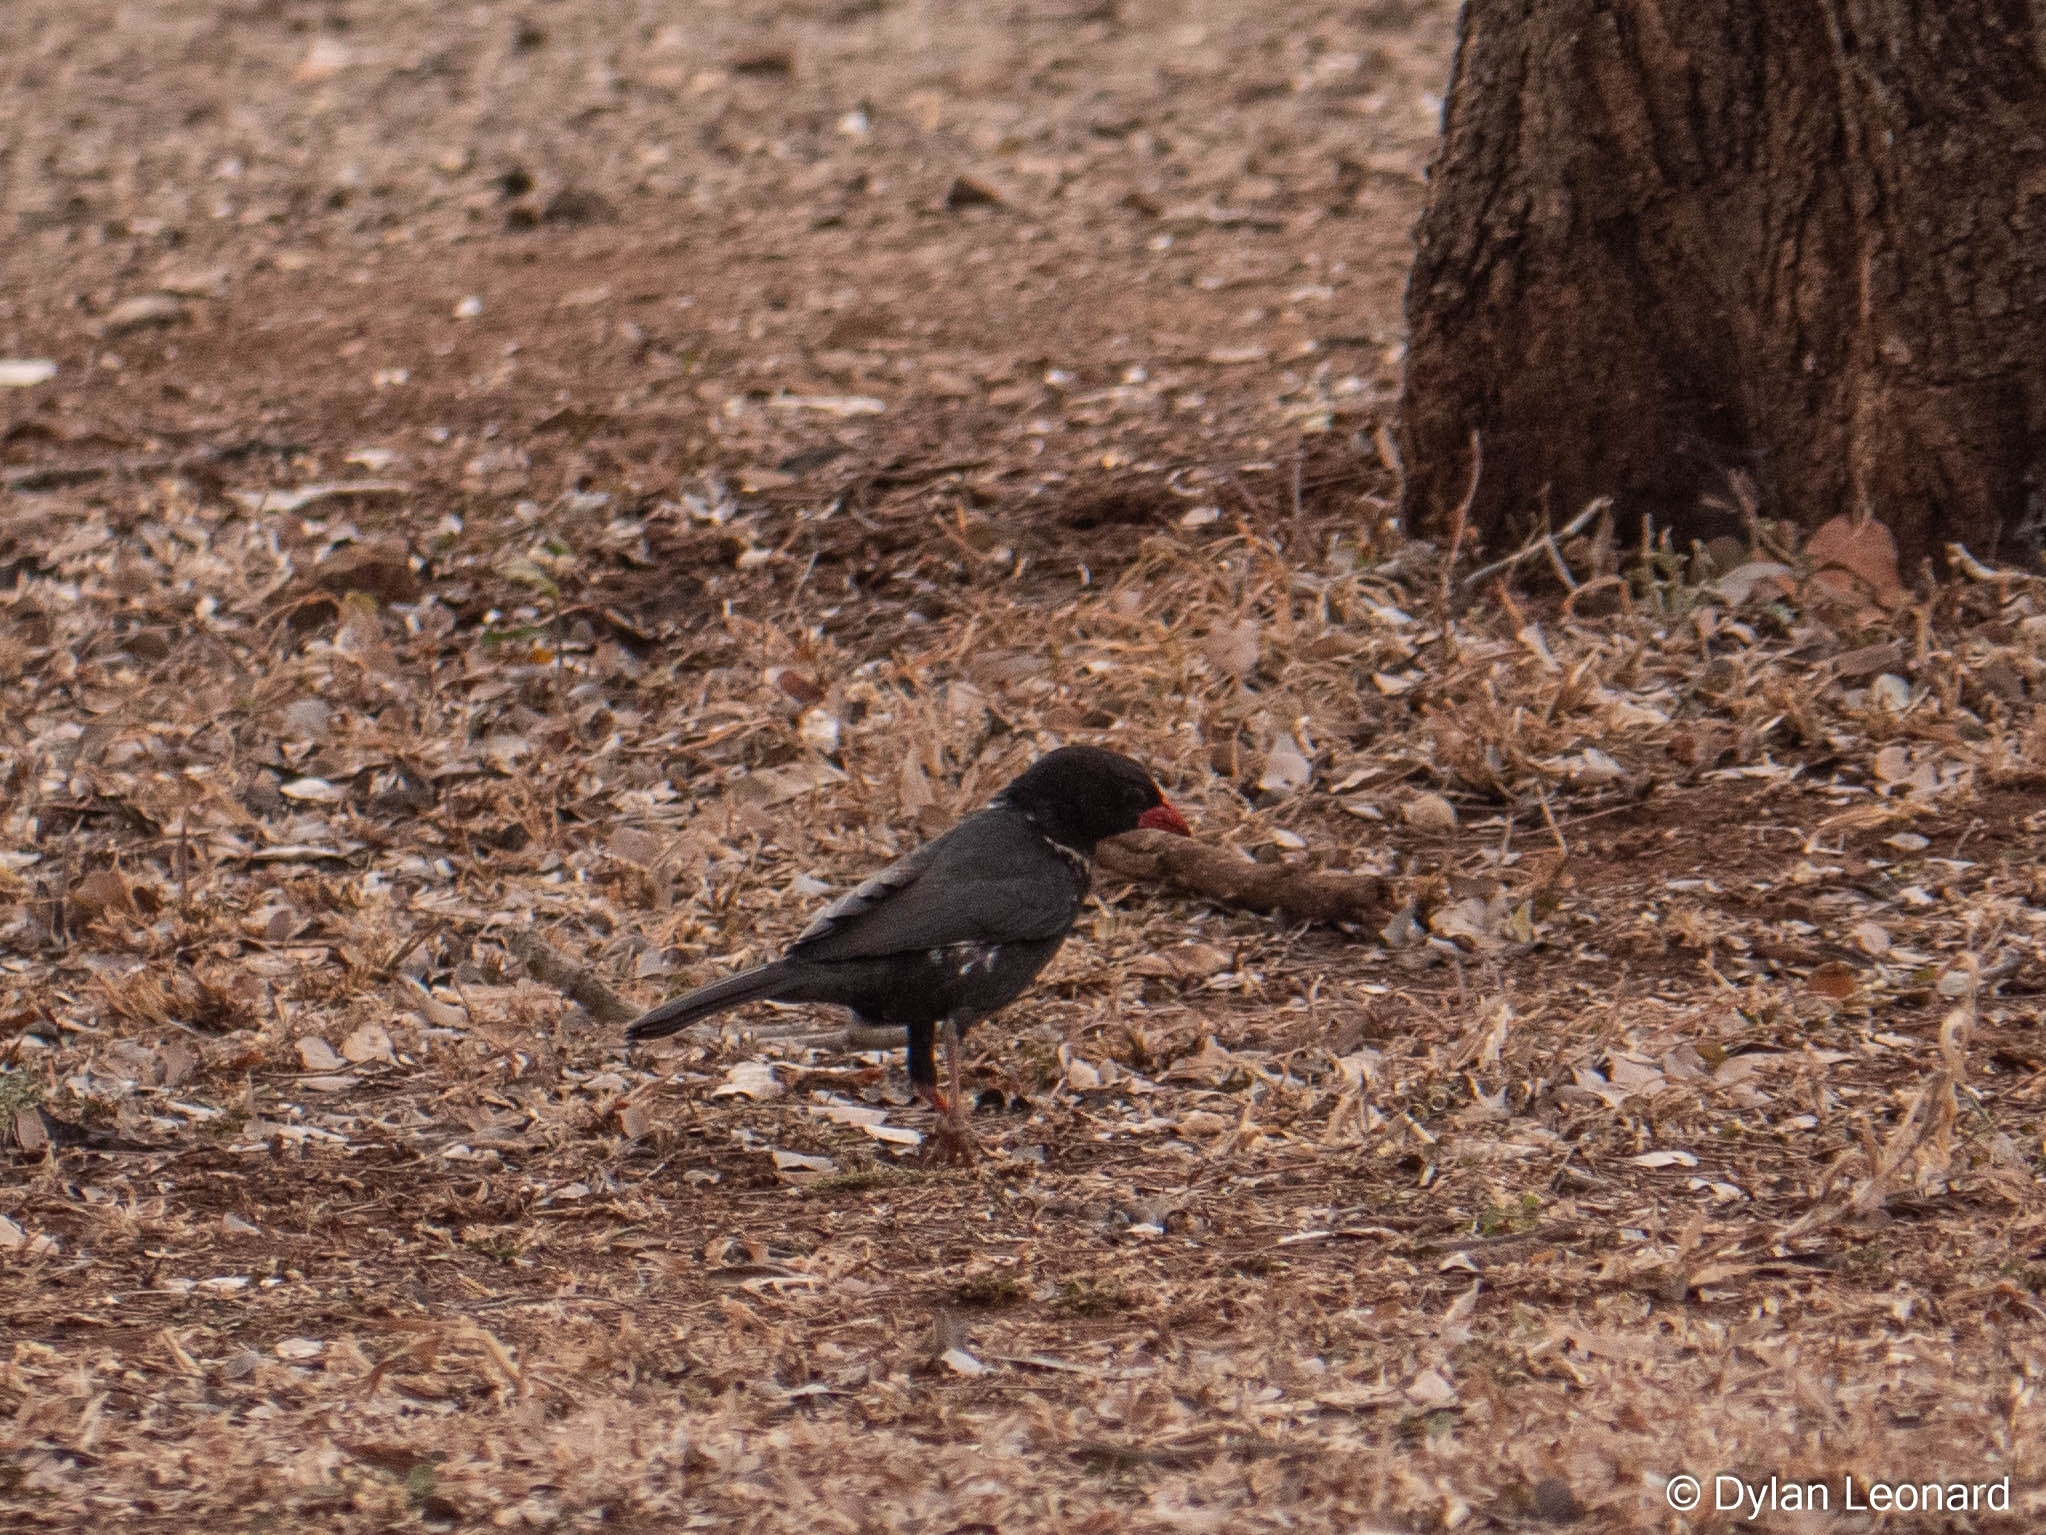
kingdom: Animalia
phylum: Chordata
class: Aves
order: Passeriformes
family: Ploceidae
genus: Bubalornis
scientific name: Bubalornis niger
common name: Red-billed buffalo weaver
